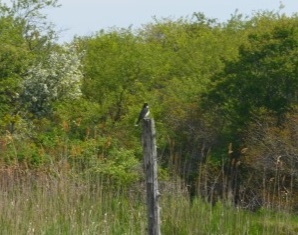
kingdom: Animalia
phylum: Chordata
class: Aves
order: Passeriformes
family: Tyrannidae
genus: Tyrannus
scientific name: Tyrannus tyrannus
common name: Eastern kingbird
